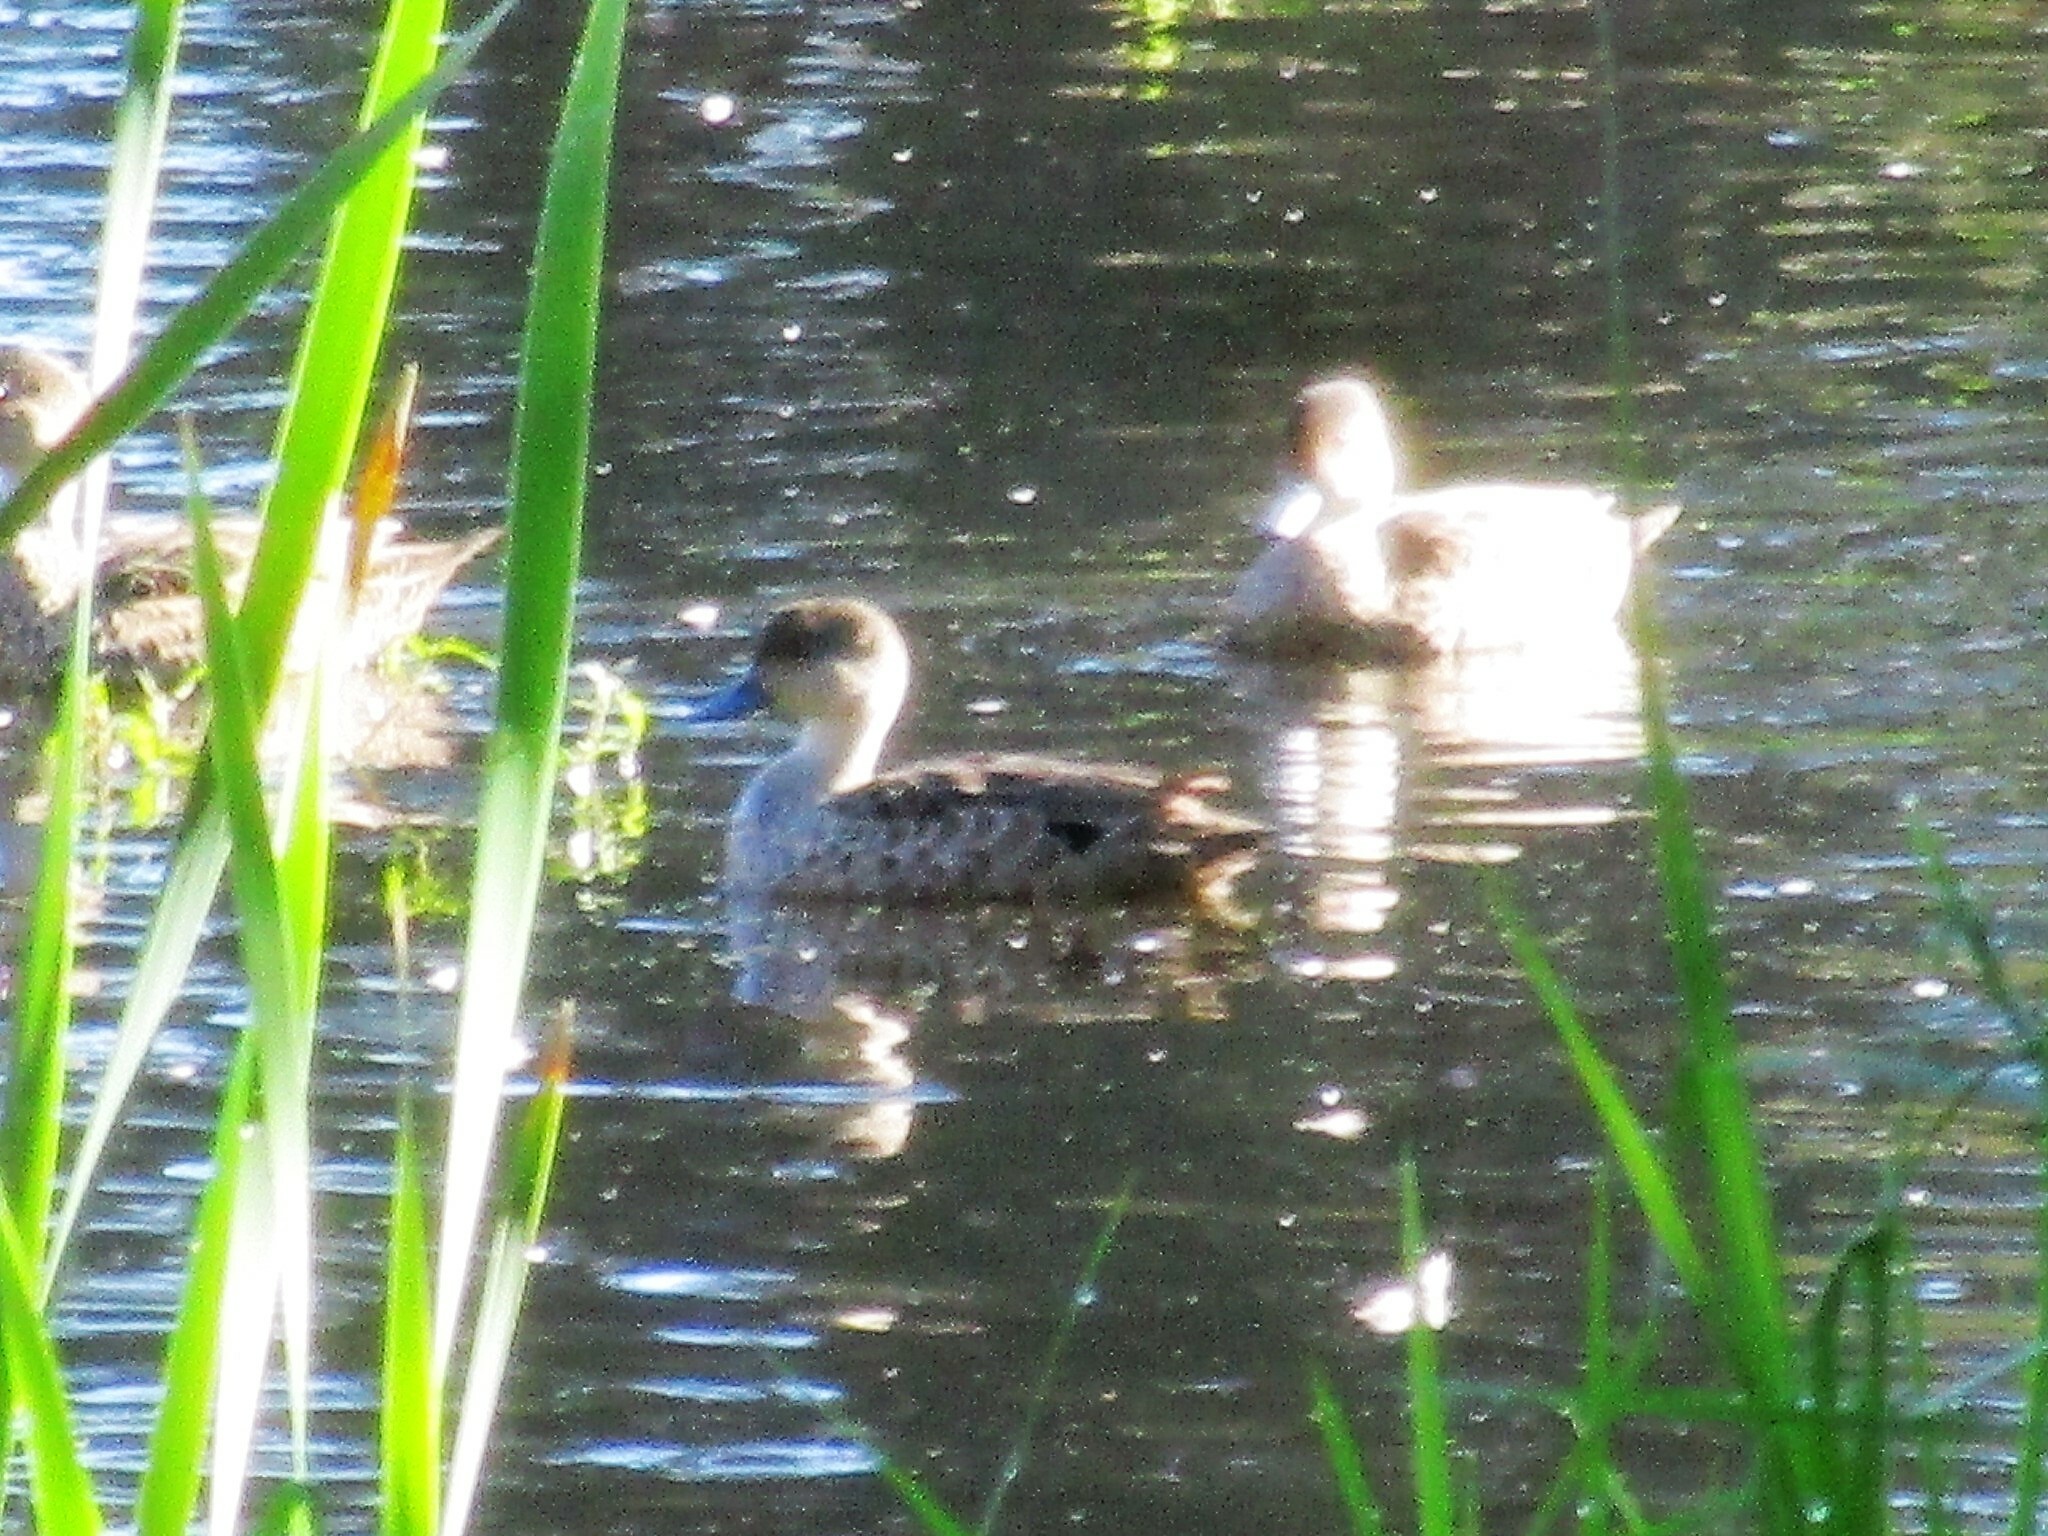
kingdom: Animalia
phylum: Chordata
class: Aves
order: Anseriformes
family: Anatidae
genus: Anas
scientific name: Anas gracilis
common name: Grey teal
